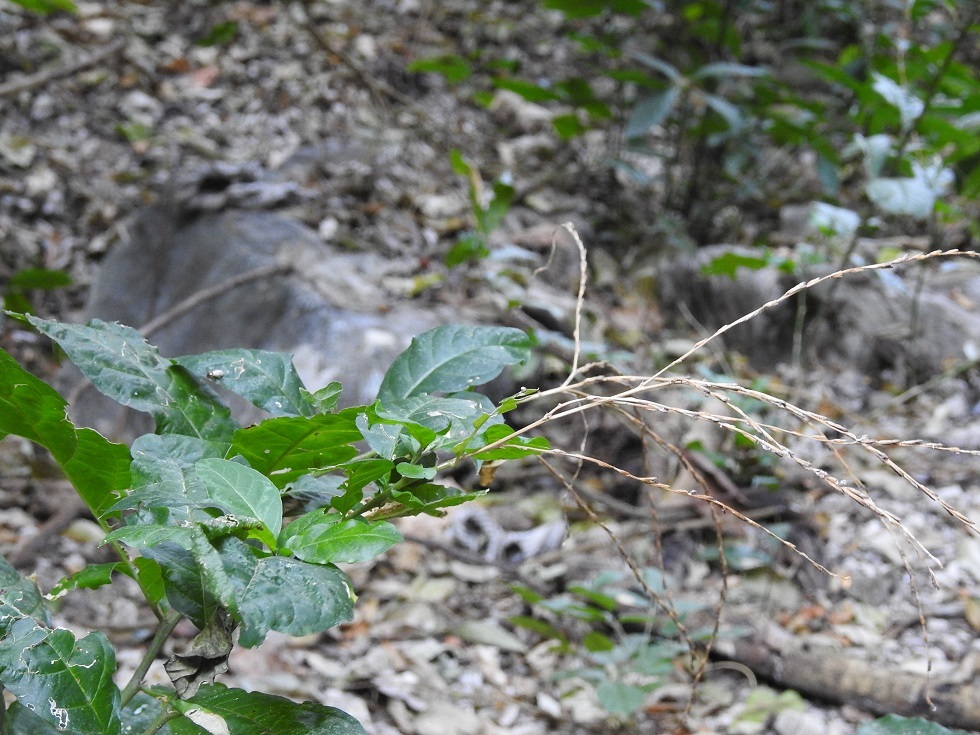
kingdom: Plantae
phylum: Tracheophyta
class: Magnoliopsida
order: Caryophyllales
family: Phytolaccaceae
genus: Petiveria
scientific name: Petiveria alliacea
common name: Garlicweed
